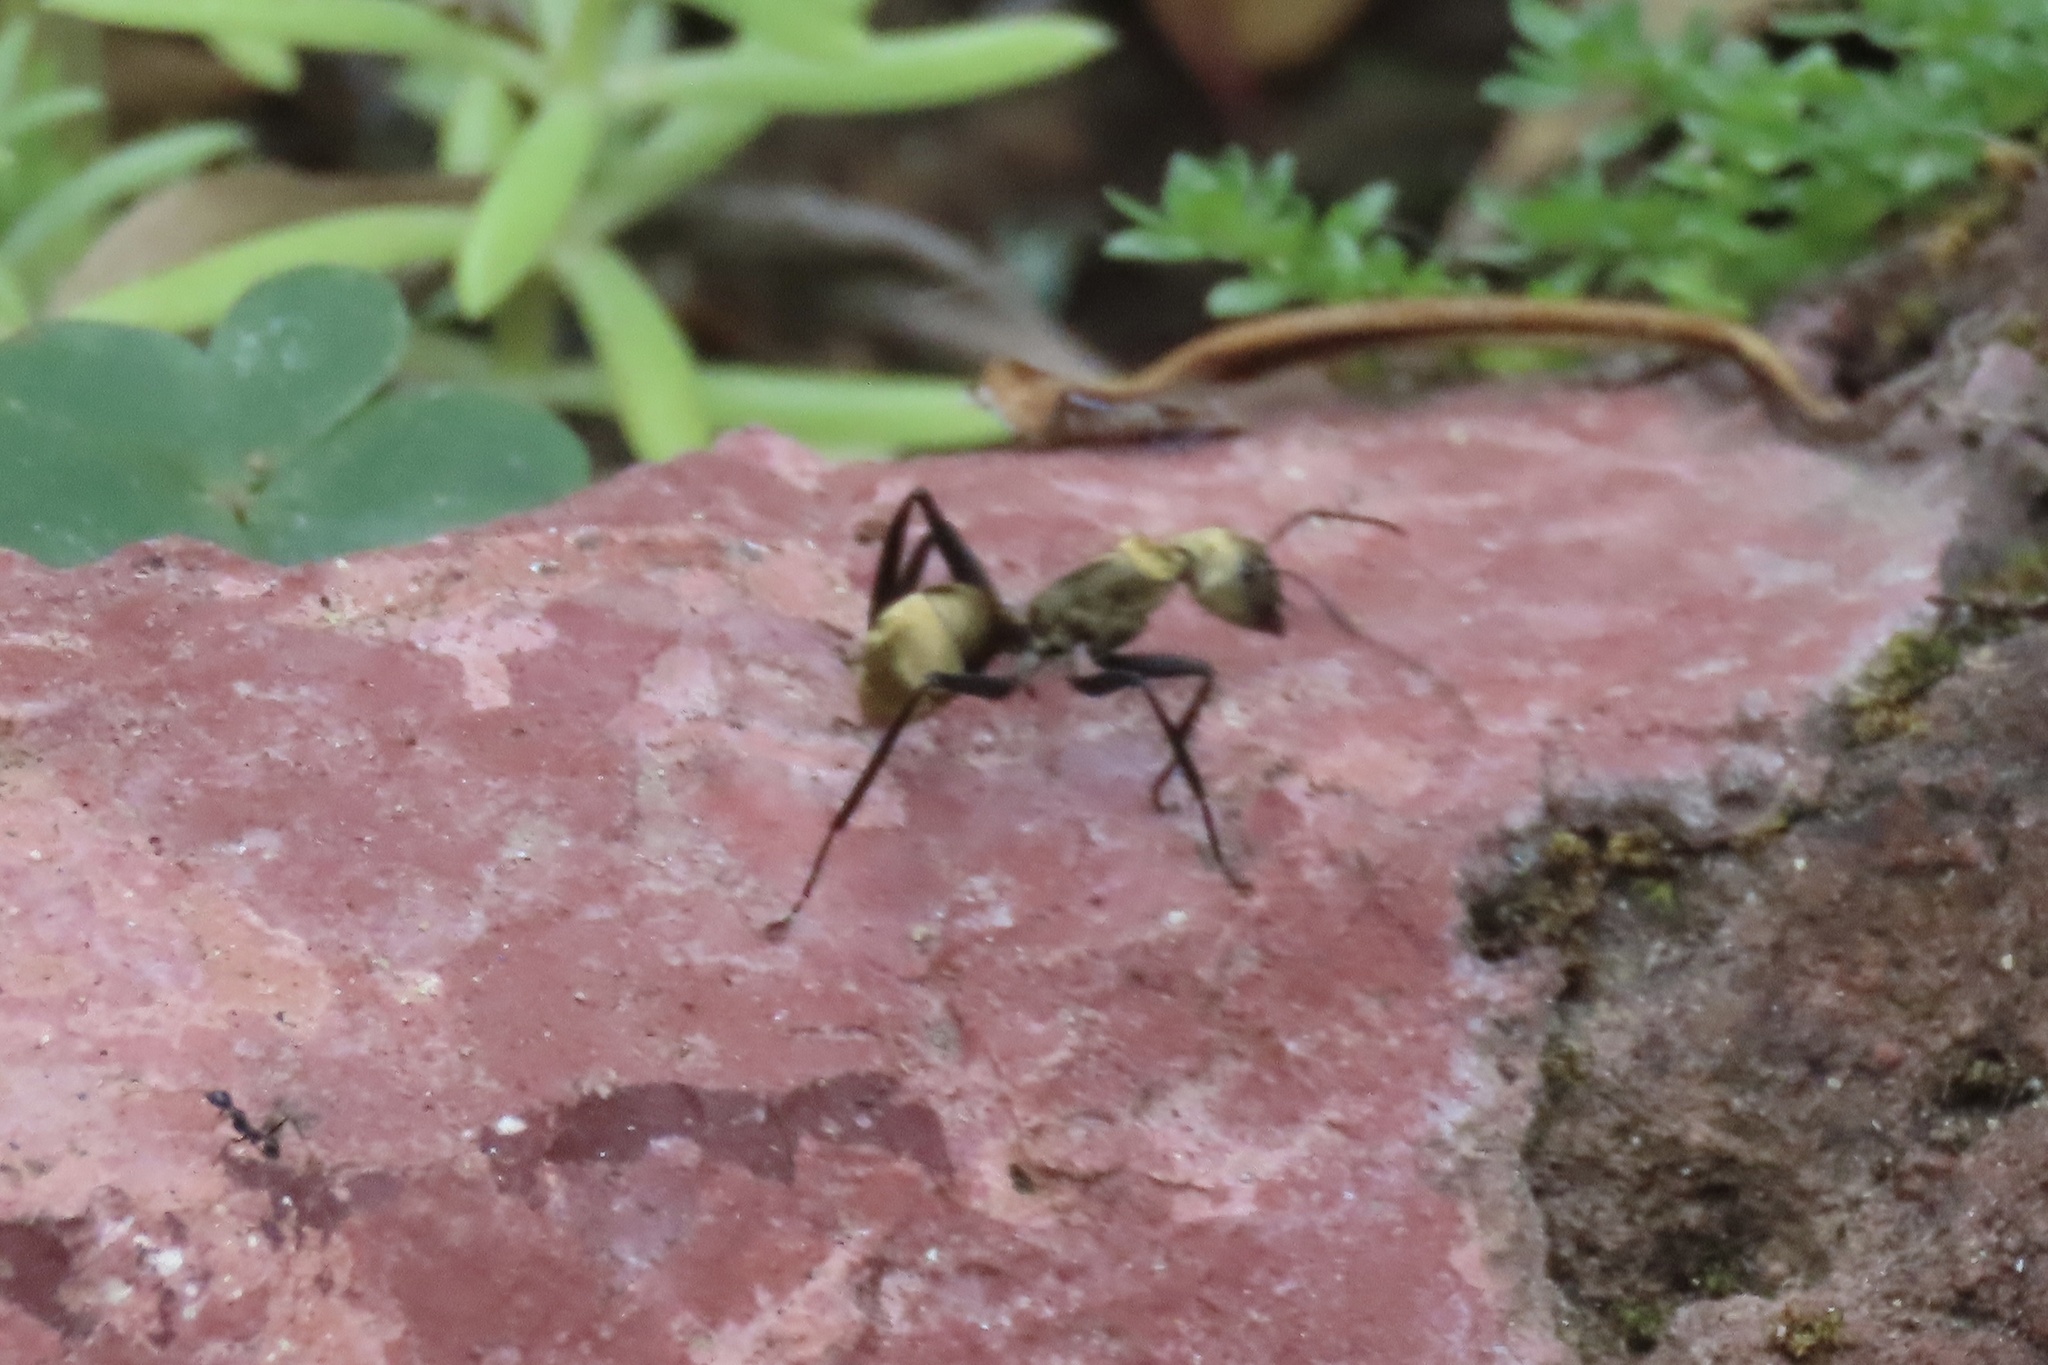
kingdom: Animalia
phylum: Arthropoda
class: Insecta
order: Hymenoptera
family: Formicidae
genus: Camponotus
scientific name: Camponotus sericeiventris
